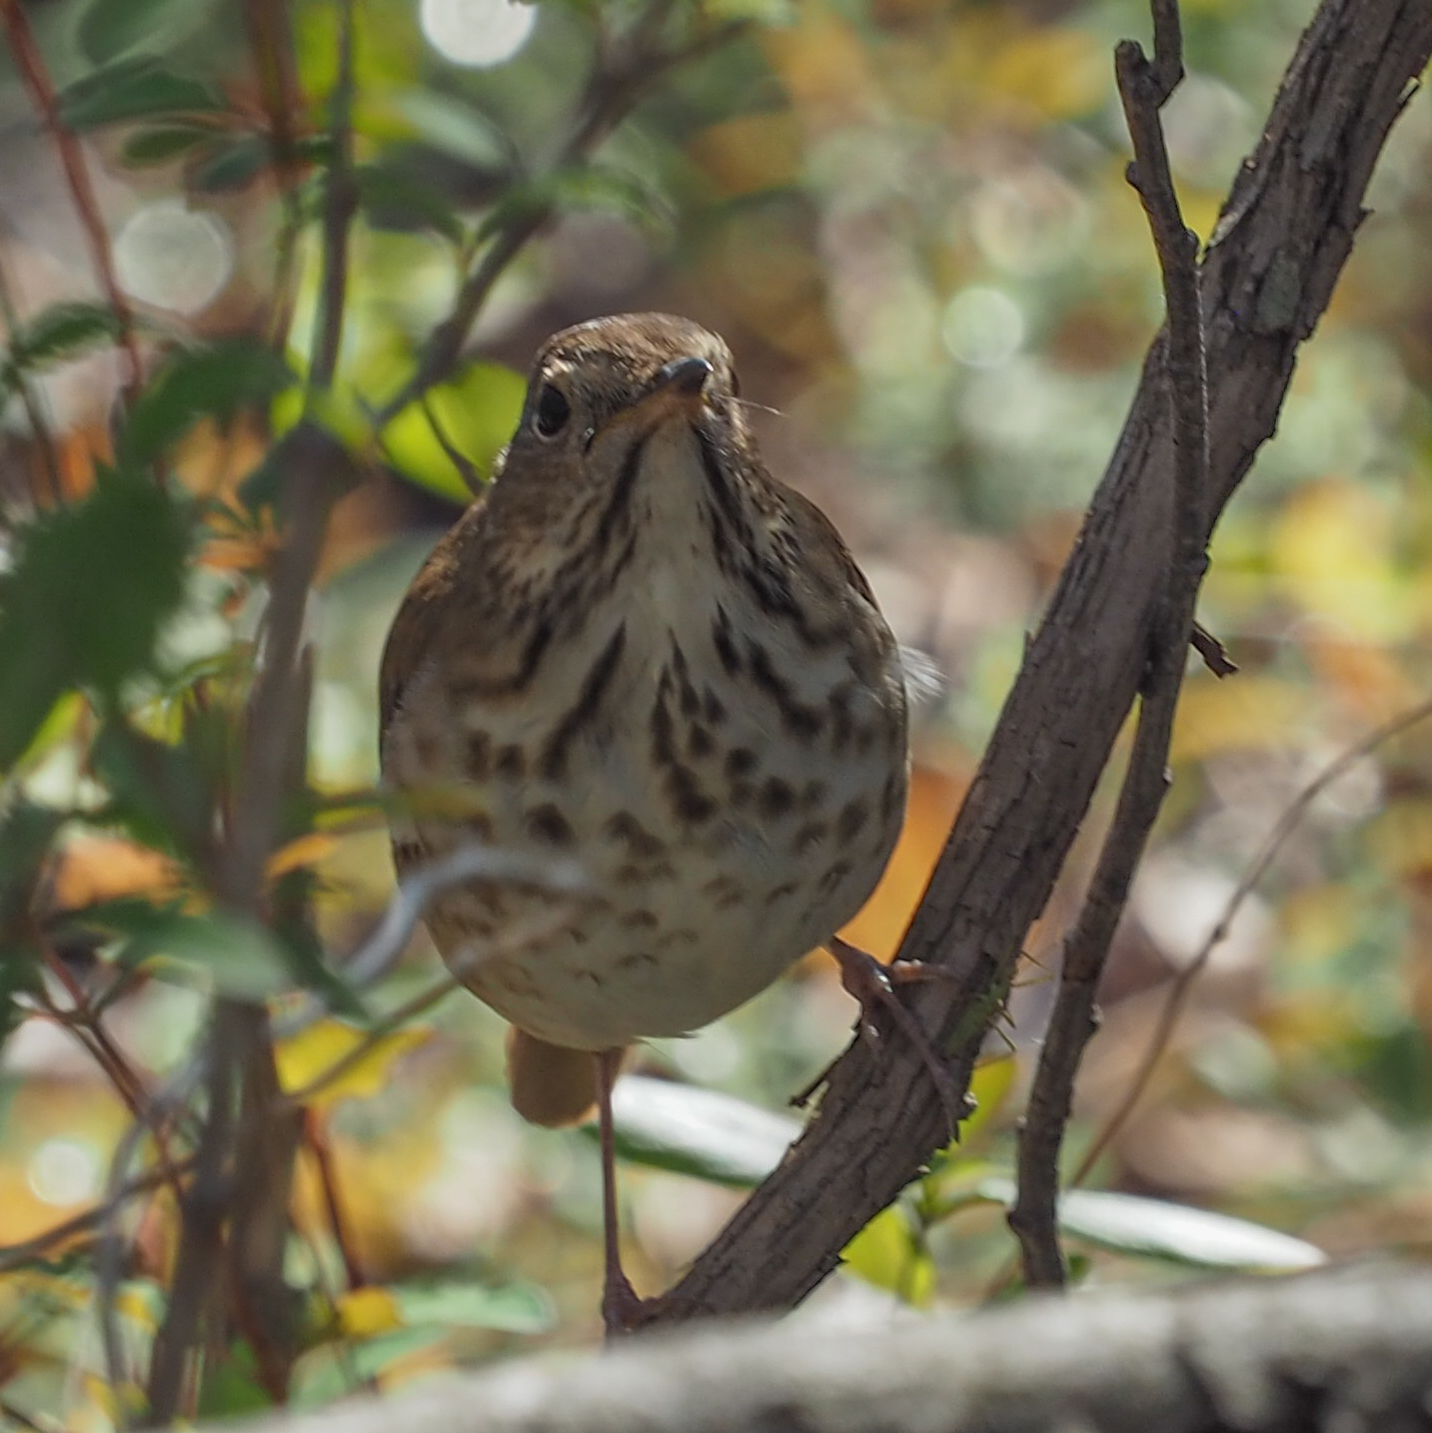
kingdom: Animalia
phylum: Chordata
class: Aves
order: Passeriformes
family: Turdidae
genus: Catharus
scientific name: Catharus guttatus
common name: Hermit thrush
